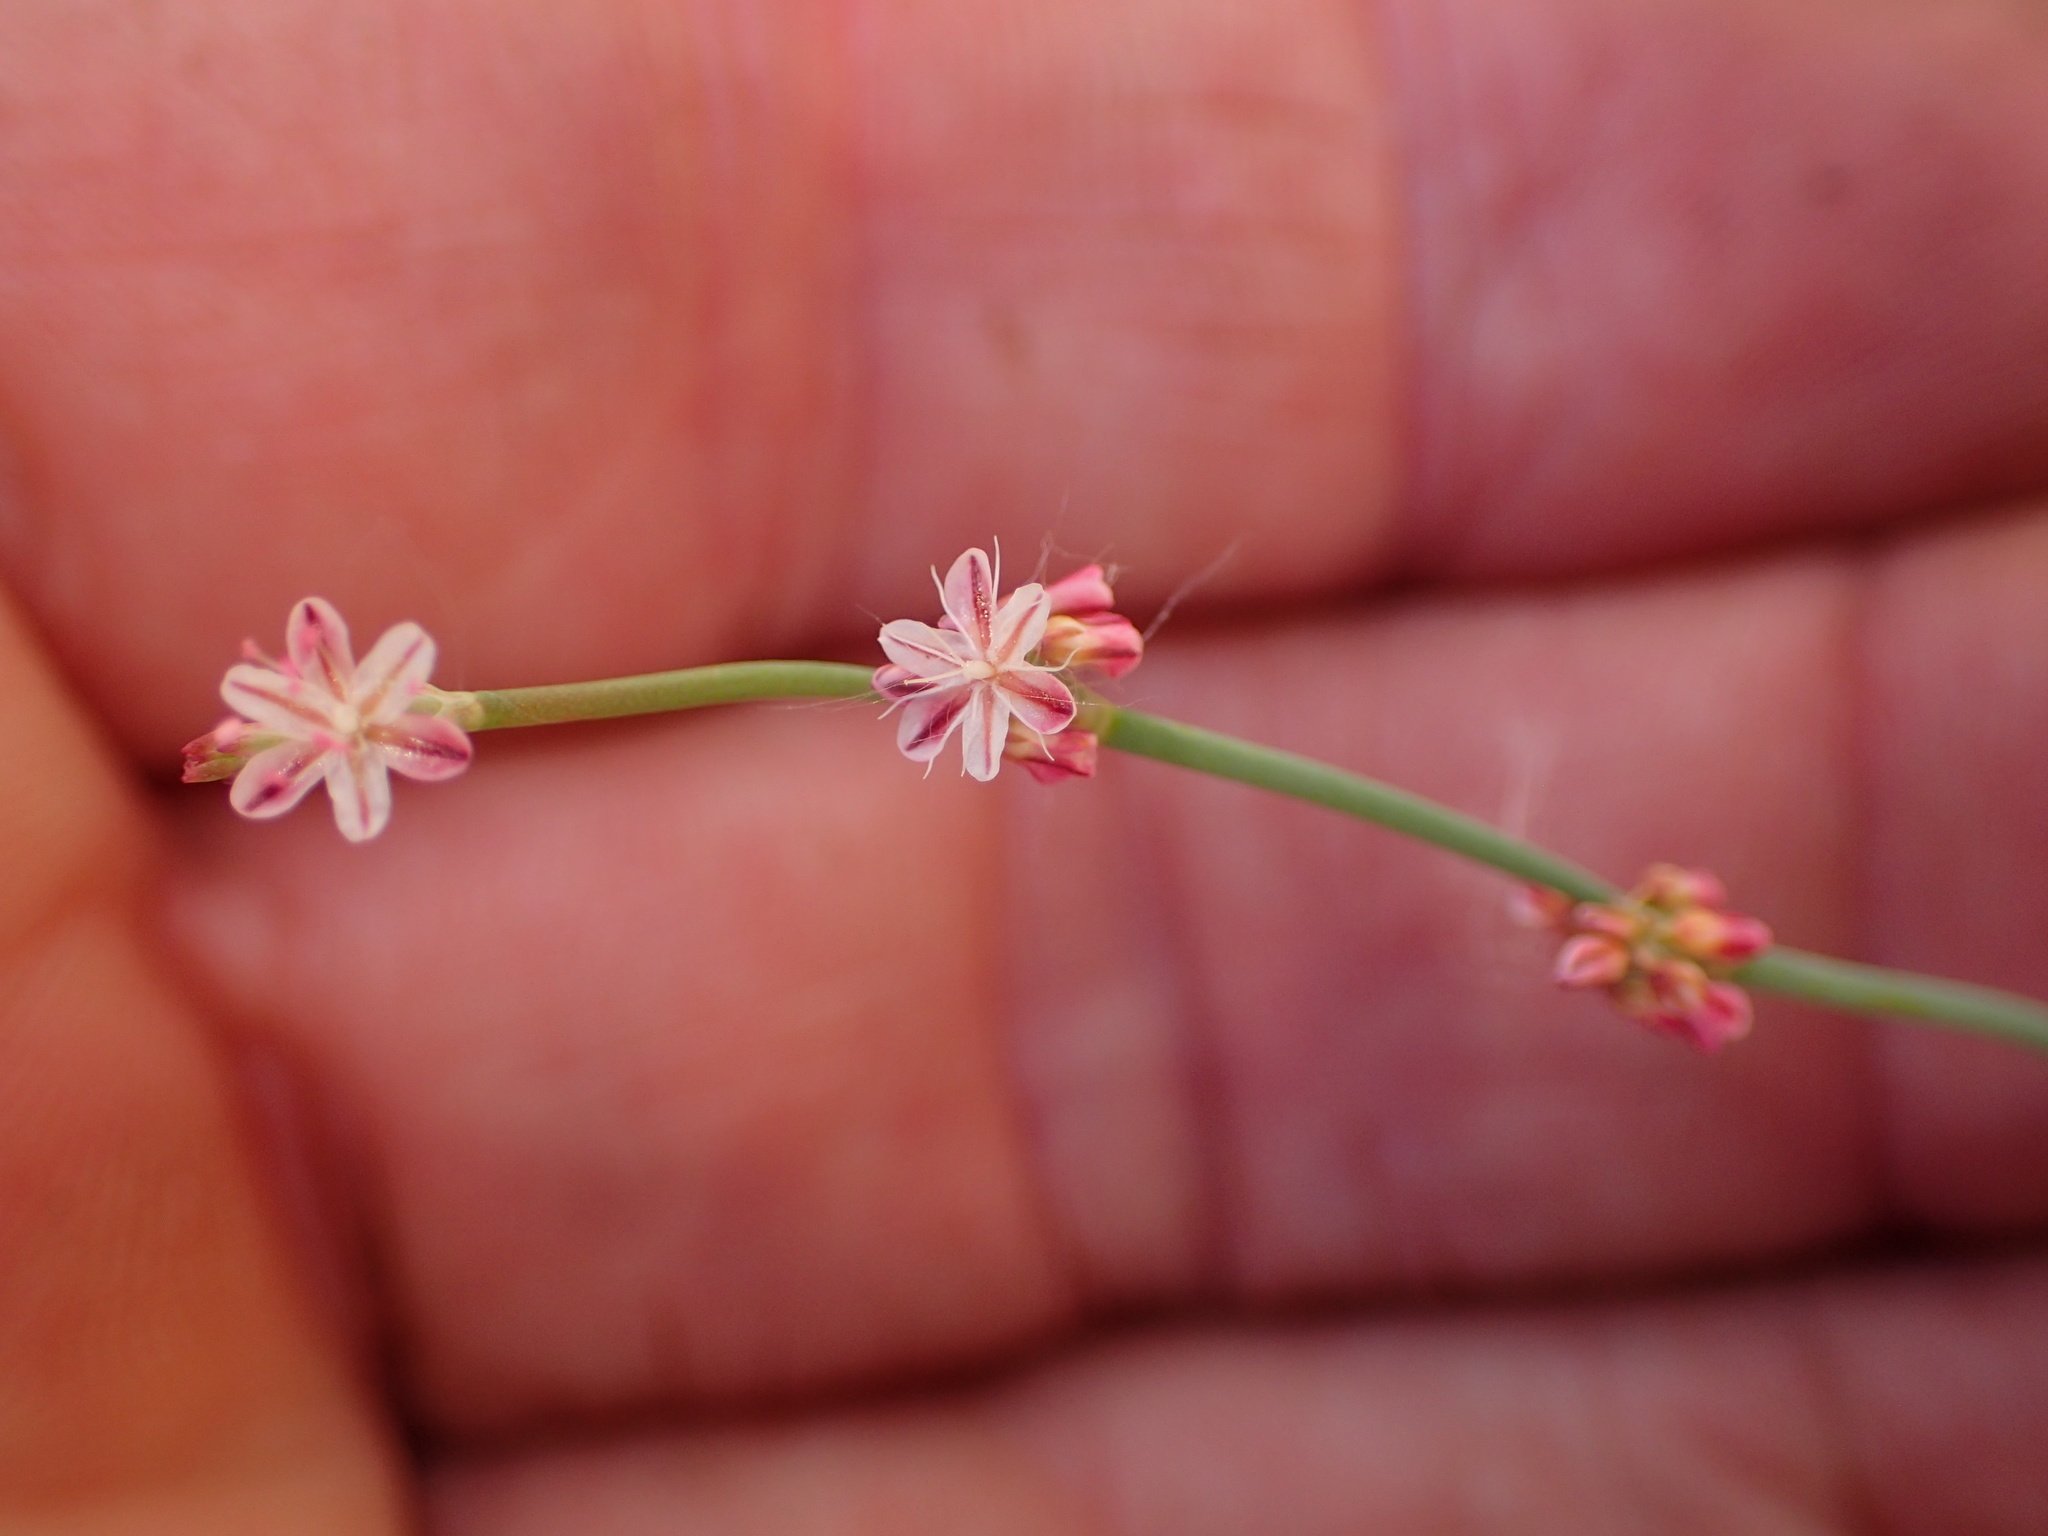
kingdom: Plantae
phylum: Tracheophyta
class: Magnoliopsida
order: Caryophyllales
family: Polygonaceae
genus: Eriogonum
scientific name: Eriogonum cithariforme
